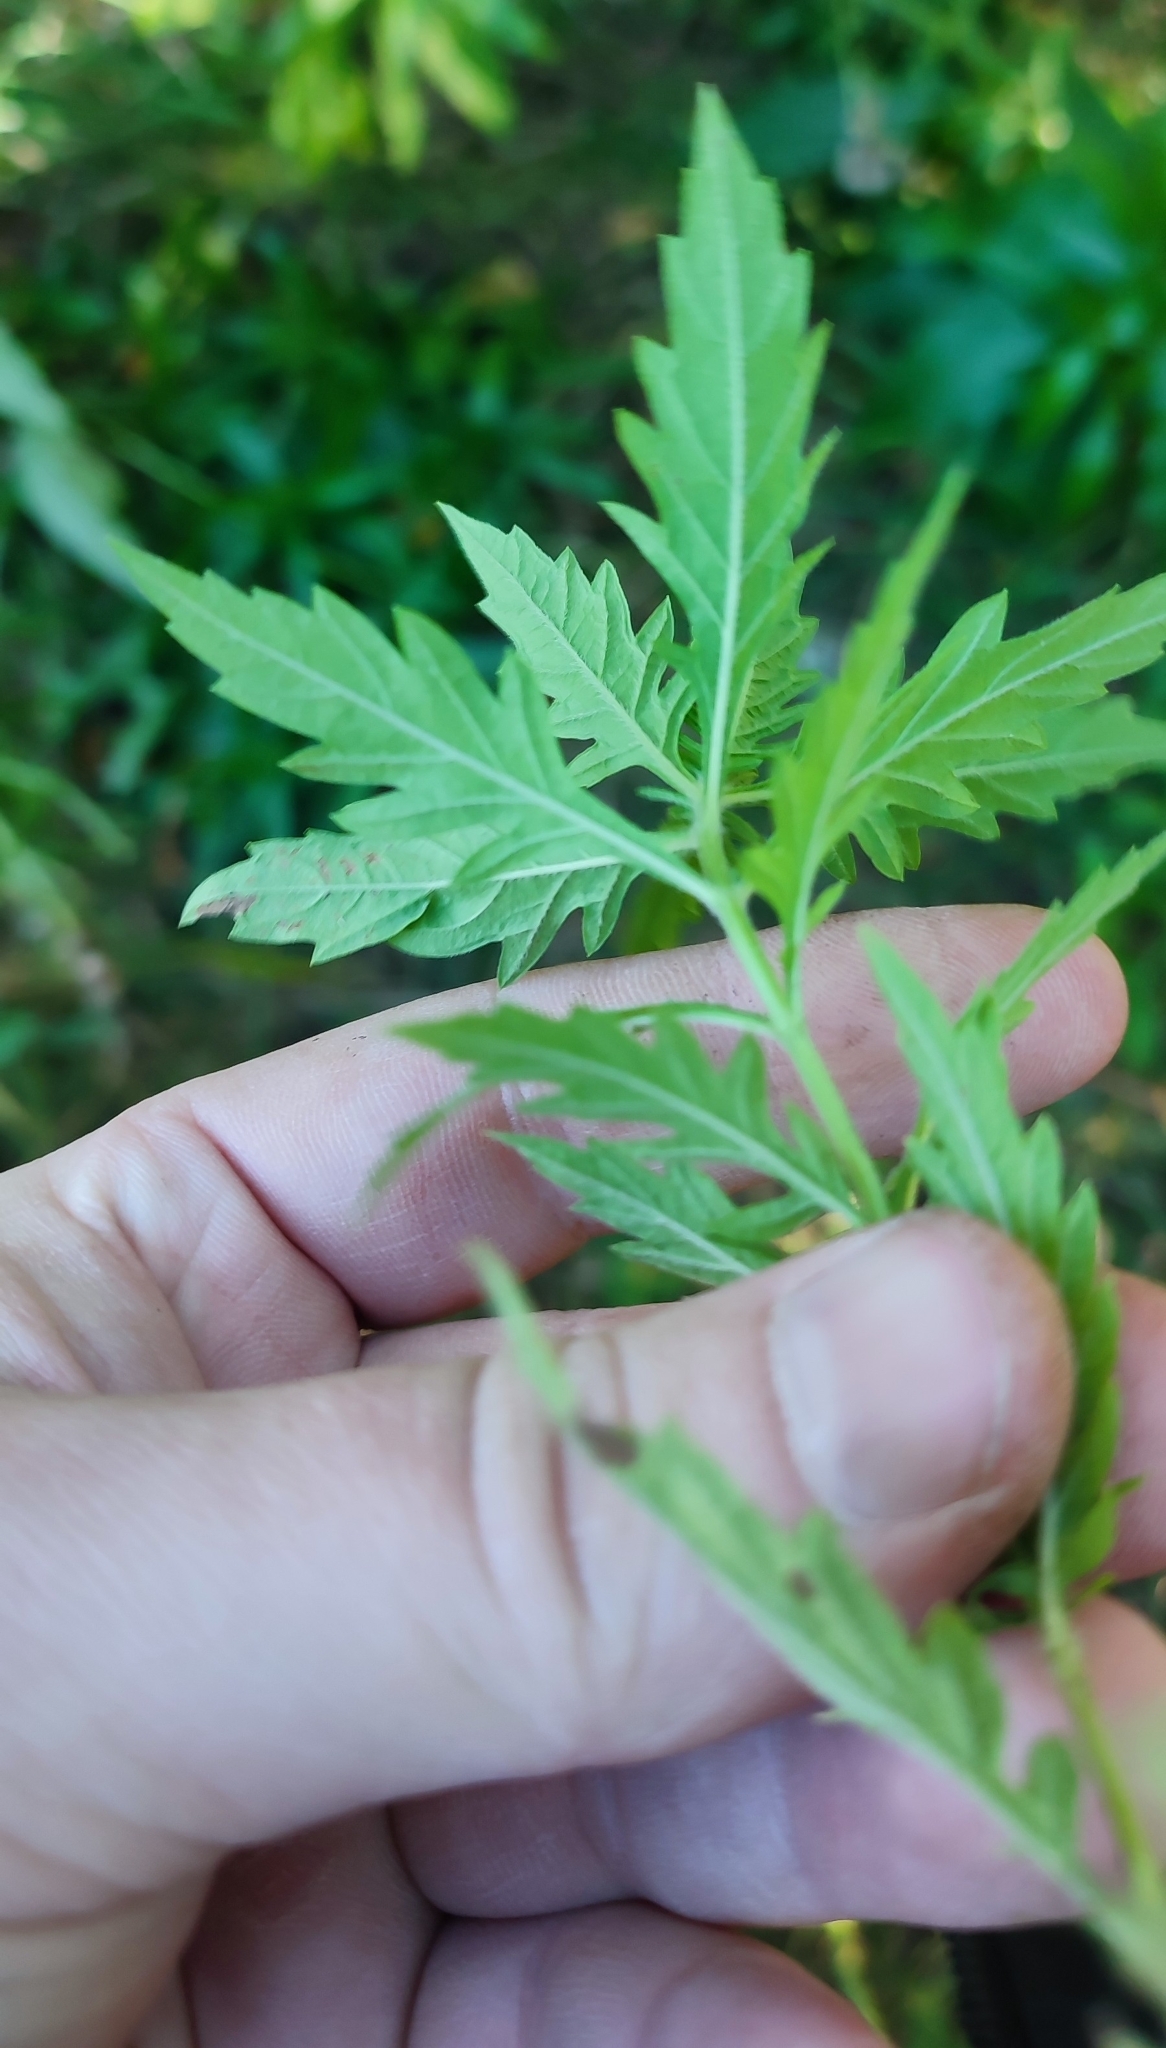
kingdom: Plantae
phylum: Tracheophyta
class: Magnoliopsida
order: Lamiales
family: Lamiaceae
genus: Lycopus
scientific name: Lycopus europaeus
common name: European bugleweed
